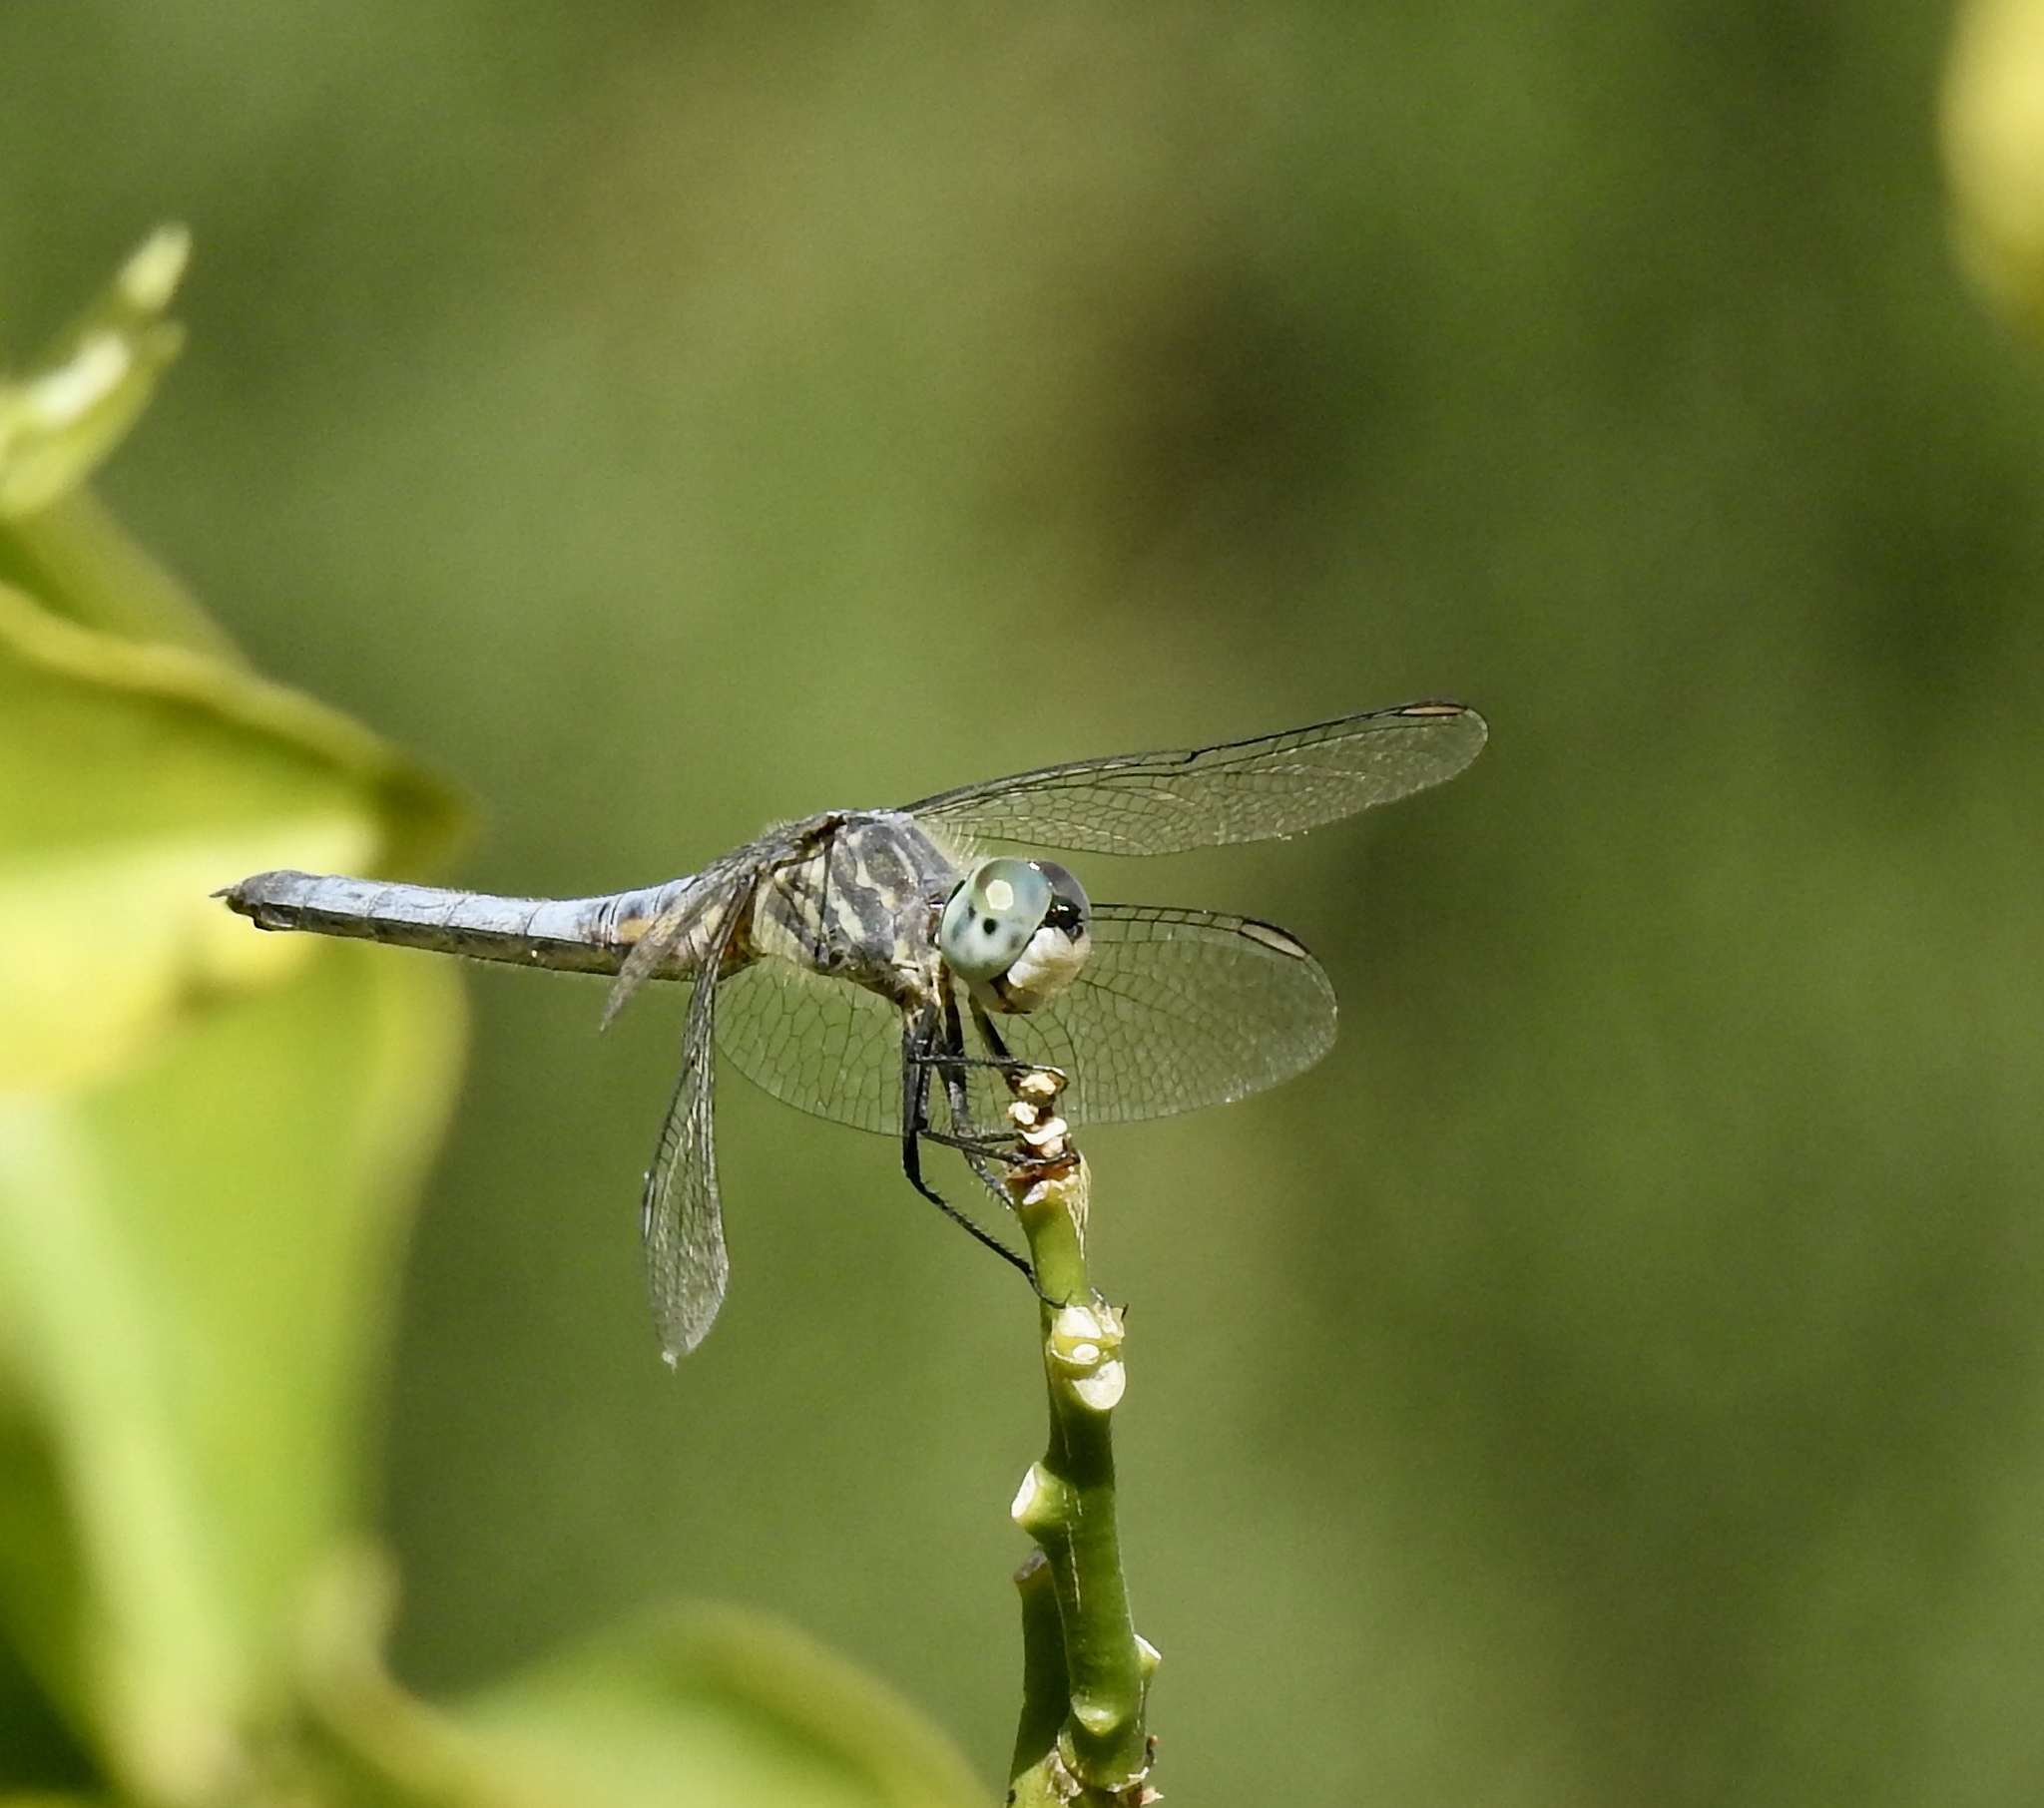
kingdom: Animalia
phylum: Arthropoda
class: Insecta
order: Odonata
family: Libellulidae
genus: Pachydiplax
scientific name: Pachydiplax longipennis
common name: Blue dasher
